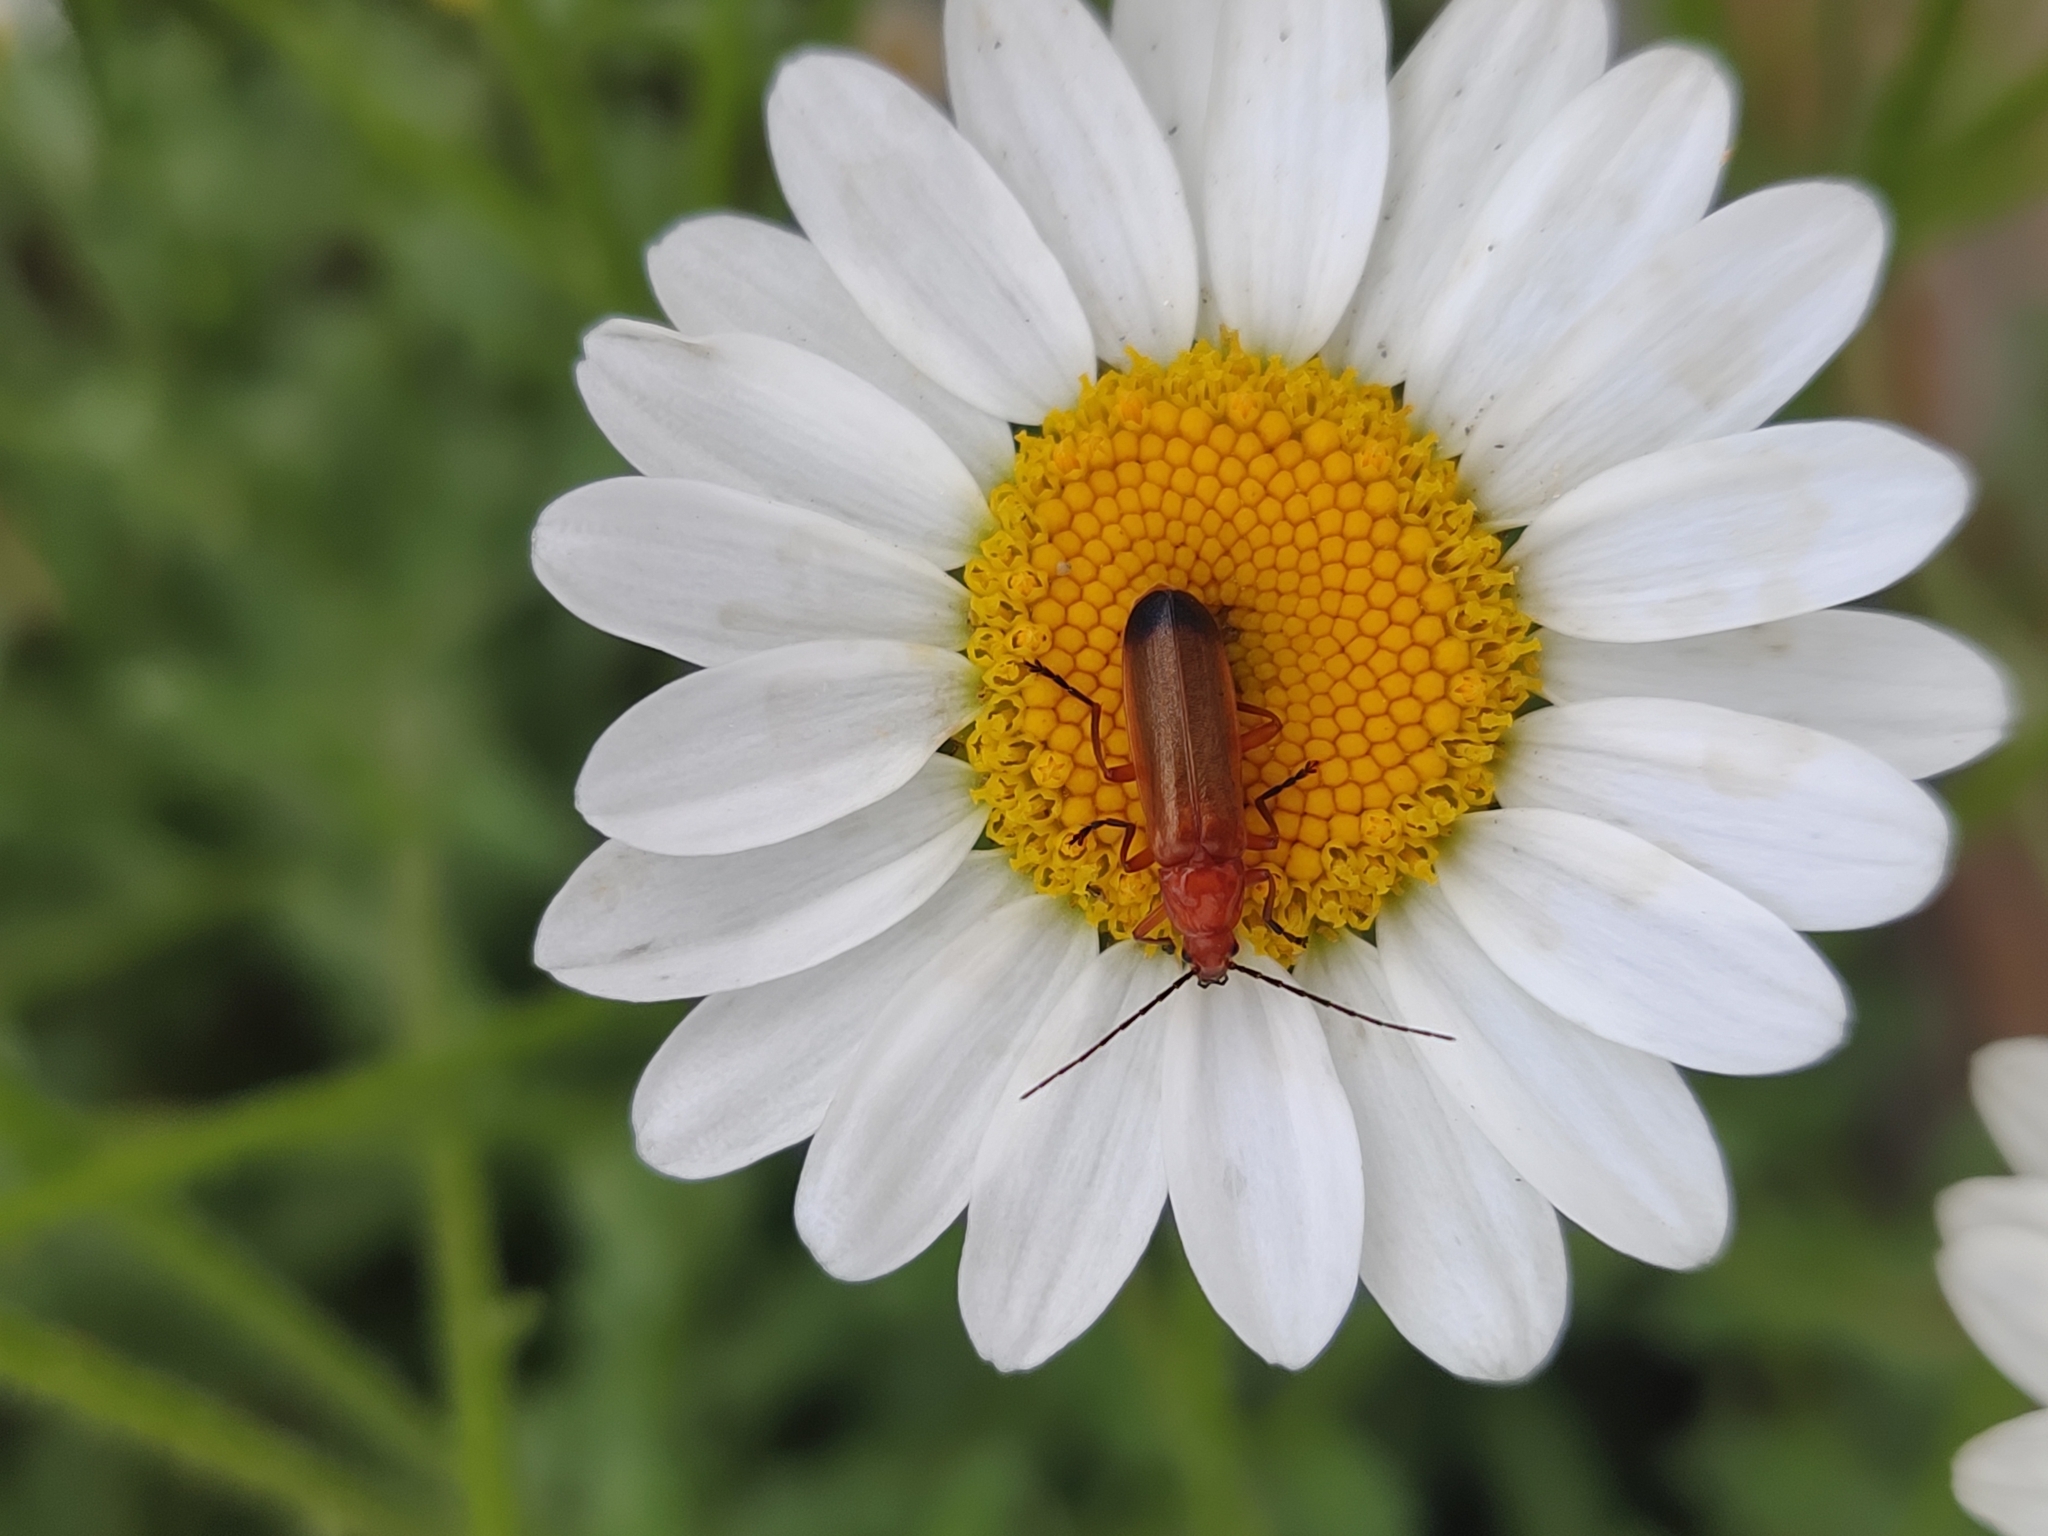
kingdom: Animalia
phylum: Arthropoda
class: Insecta
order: Coleoptera
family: Cantharidae
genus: Rhagonycha
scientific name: Rhagonycha fulva
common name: Common red soldier beetle
